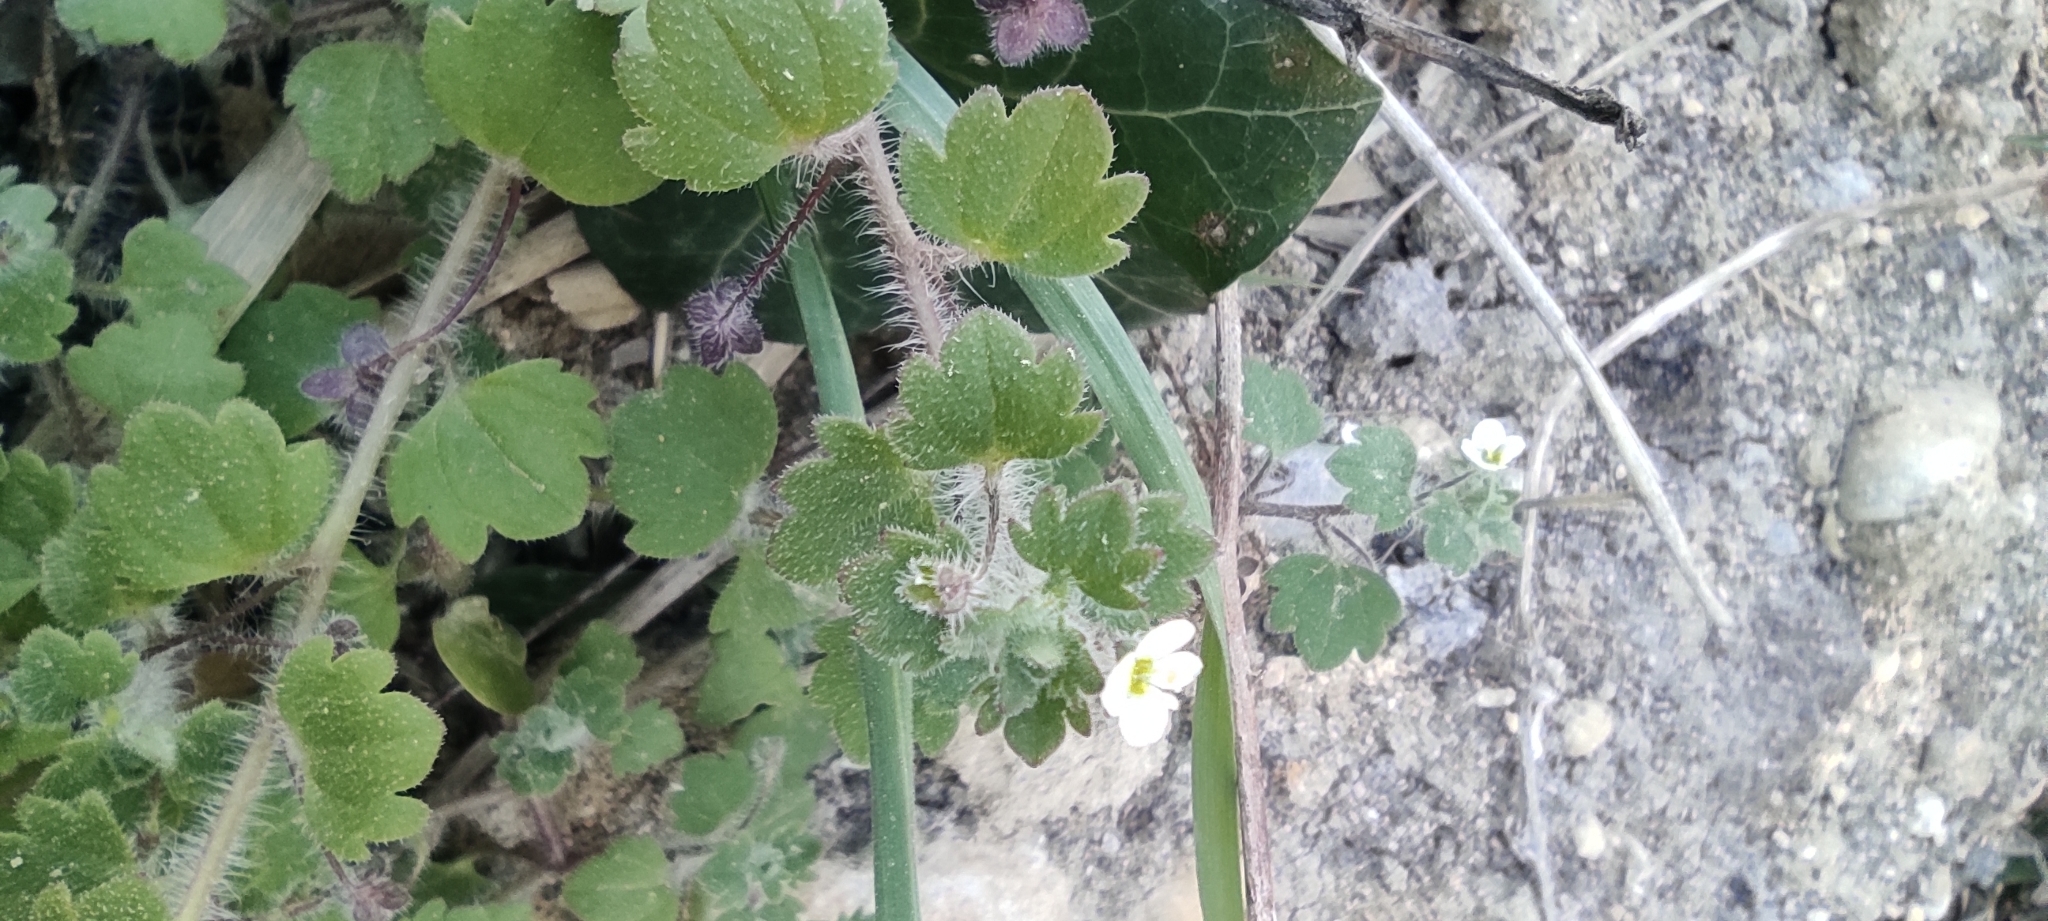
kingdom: Plantae
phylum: Tracheophyta
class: Magnoliopsida
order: Lamiales
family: Plantaginaceae
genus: Veronica
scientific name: Veronica cymbalaria
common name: Pale speedwell
